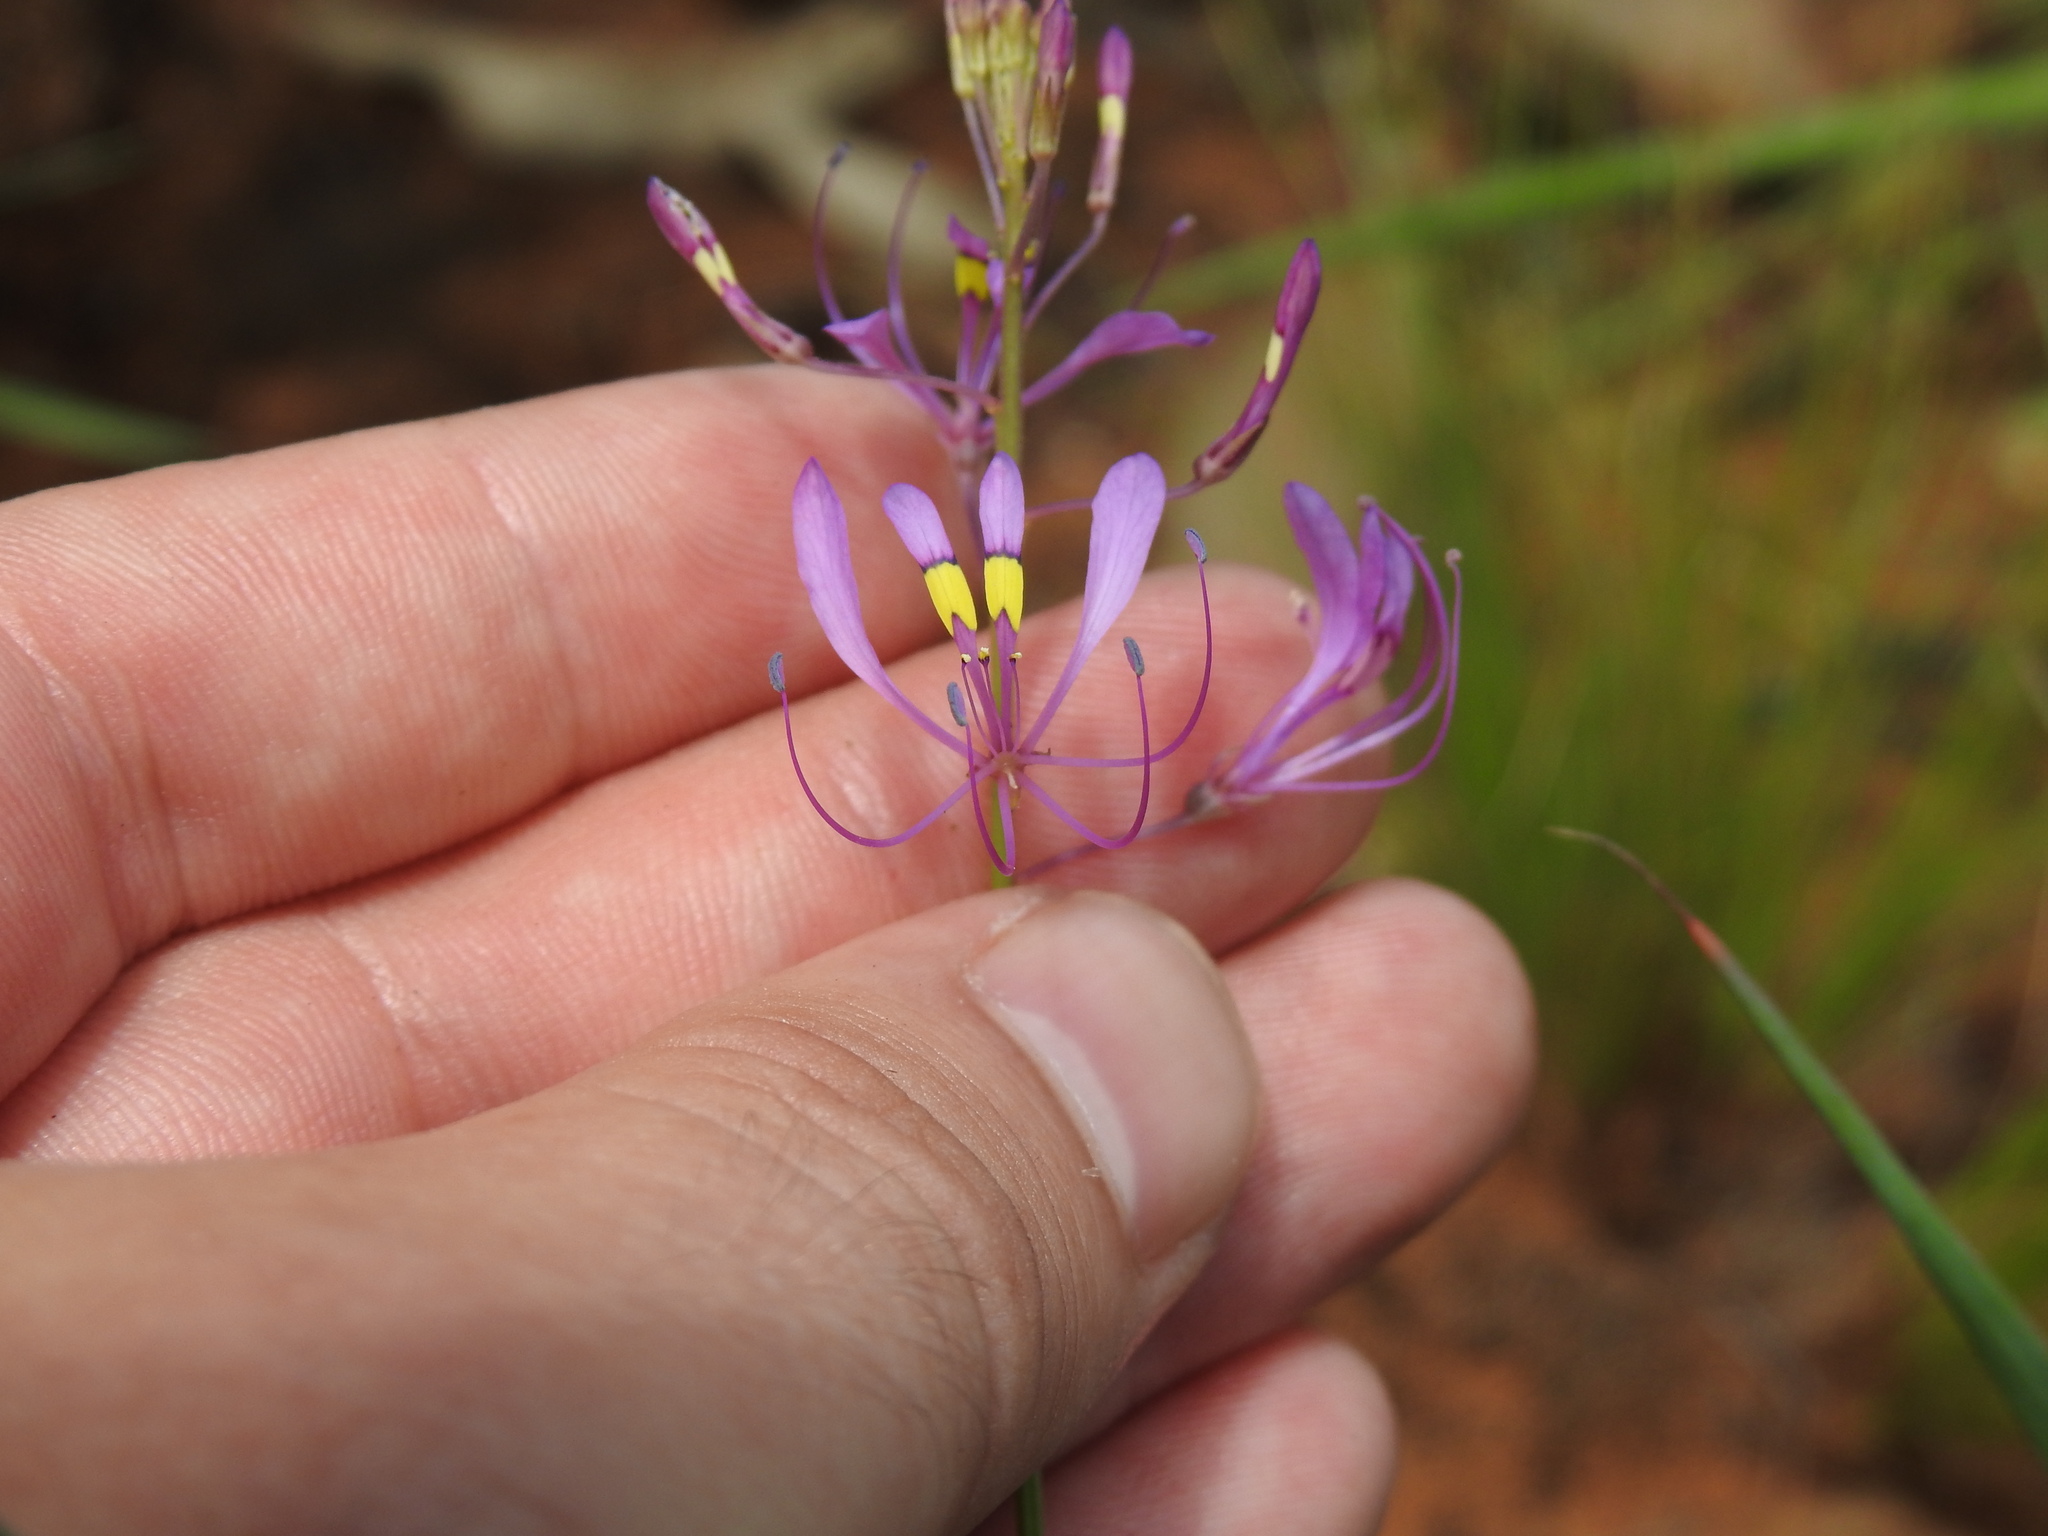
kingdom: Plantae
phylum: Tracheophyta
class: Magnoliopsida
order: Brassicales
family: Cleomaceae
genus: Sieruela
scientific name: Sieruela maculata
